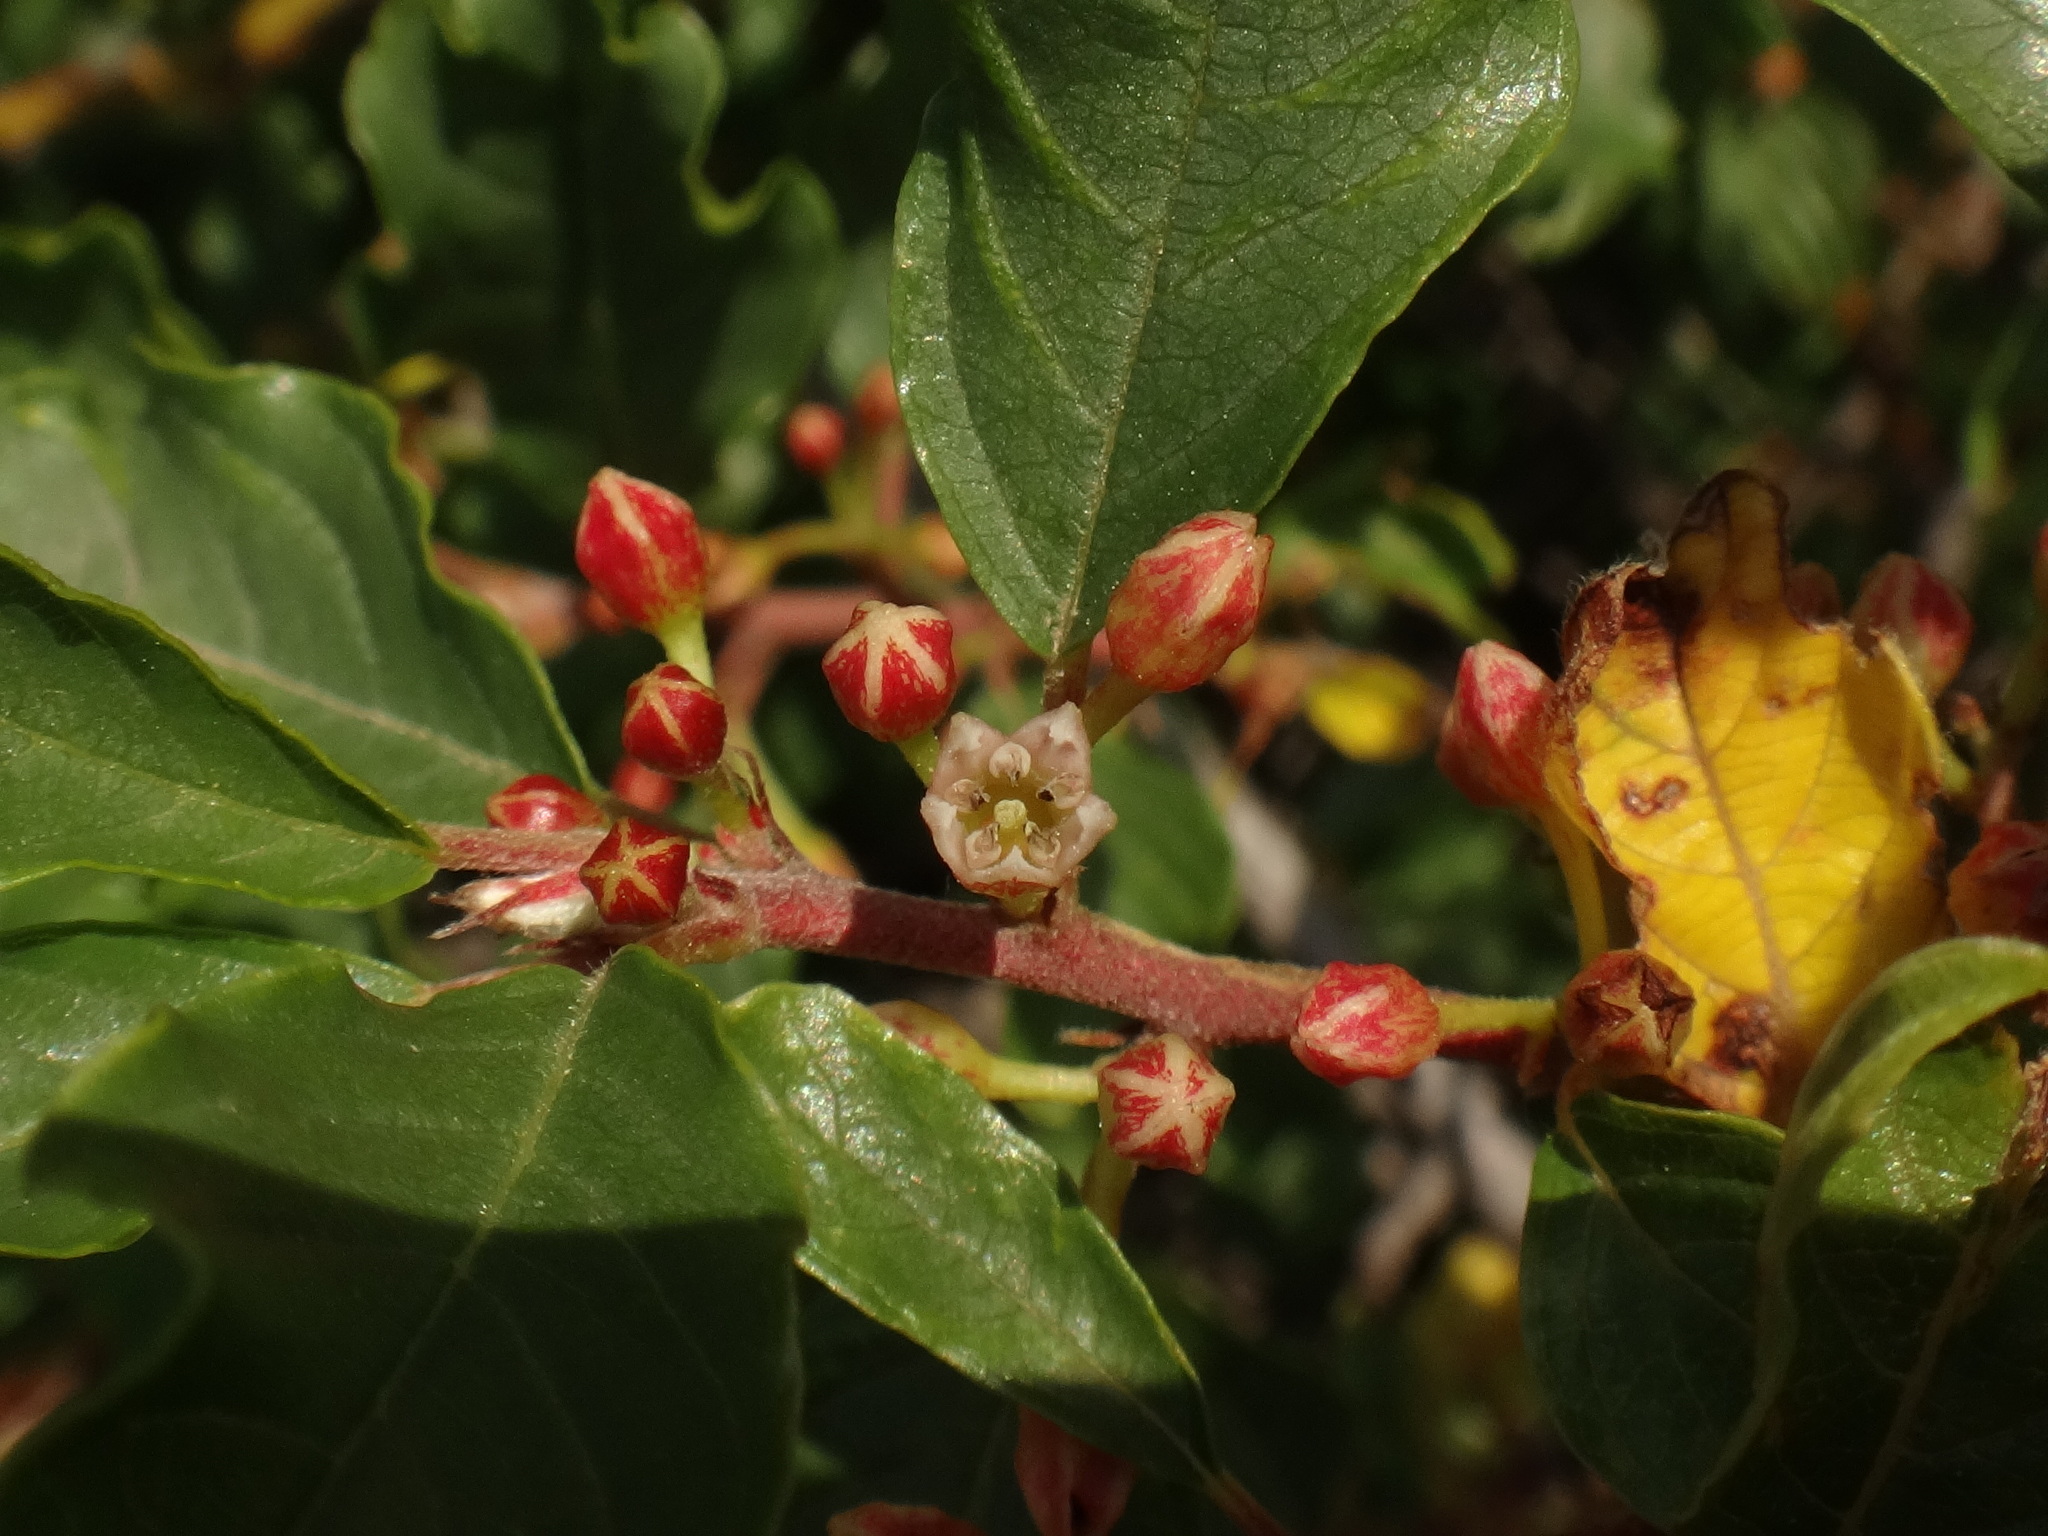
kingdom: Plantae
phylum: Tracheophyta
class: Magnoliopsida
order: Rosales
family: Rhamnaceae
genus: Frangula
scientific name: Frangula rupestris
